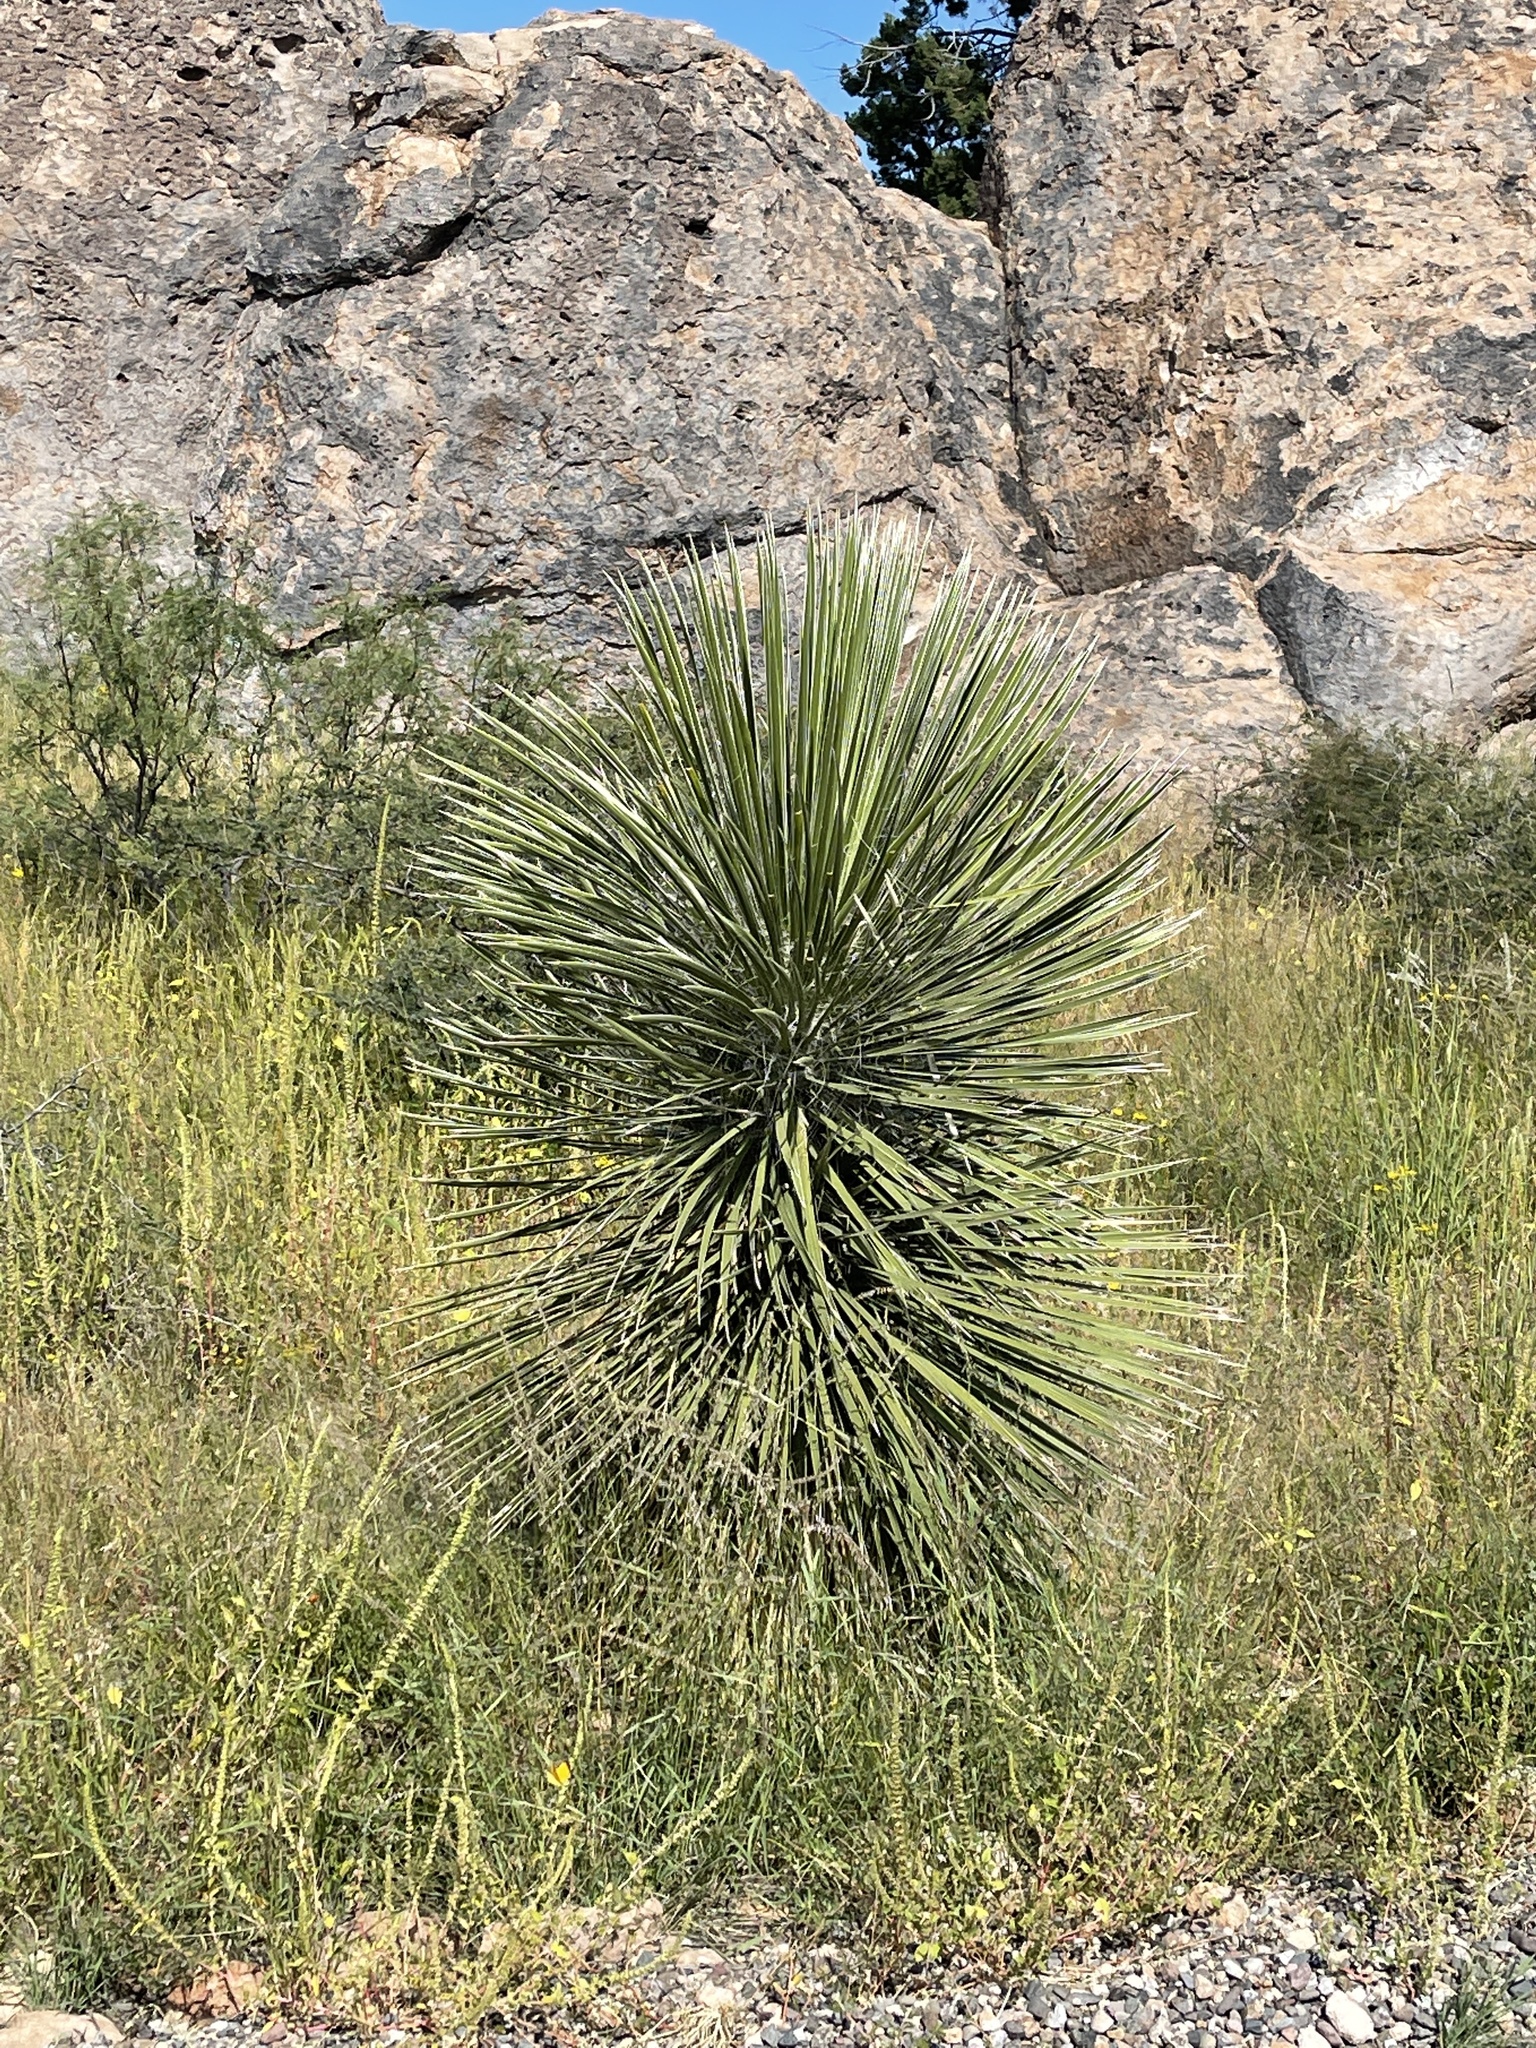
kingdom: Plantae
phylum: Tracheophyta
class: Liliopsida
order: Asparagales
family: Asparagaceae
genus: Yucca
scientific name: Yucca elata
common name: Palmella
